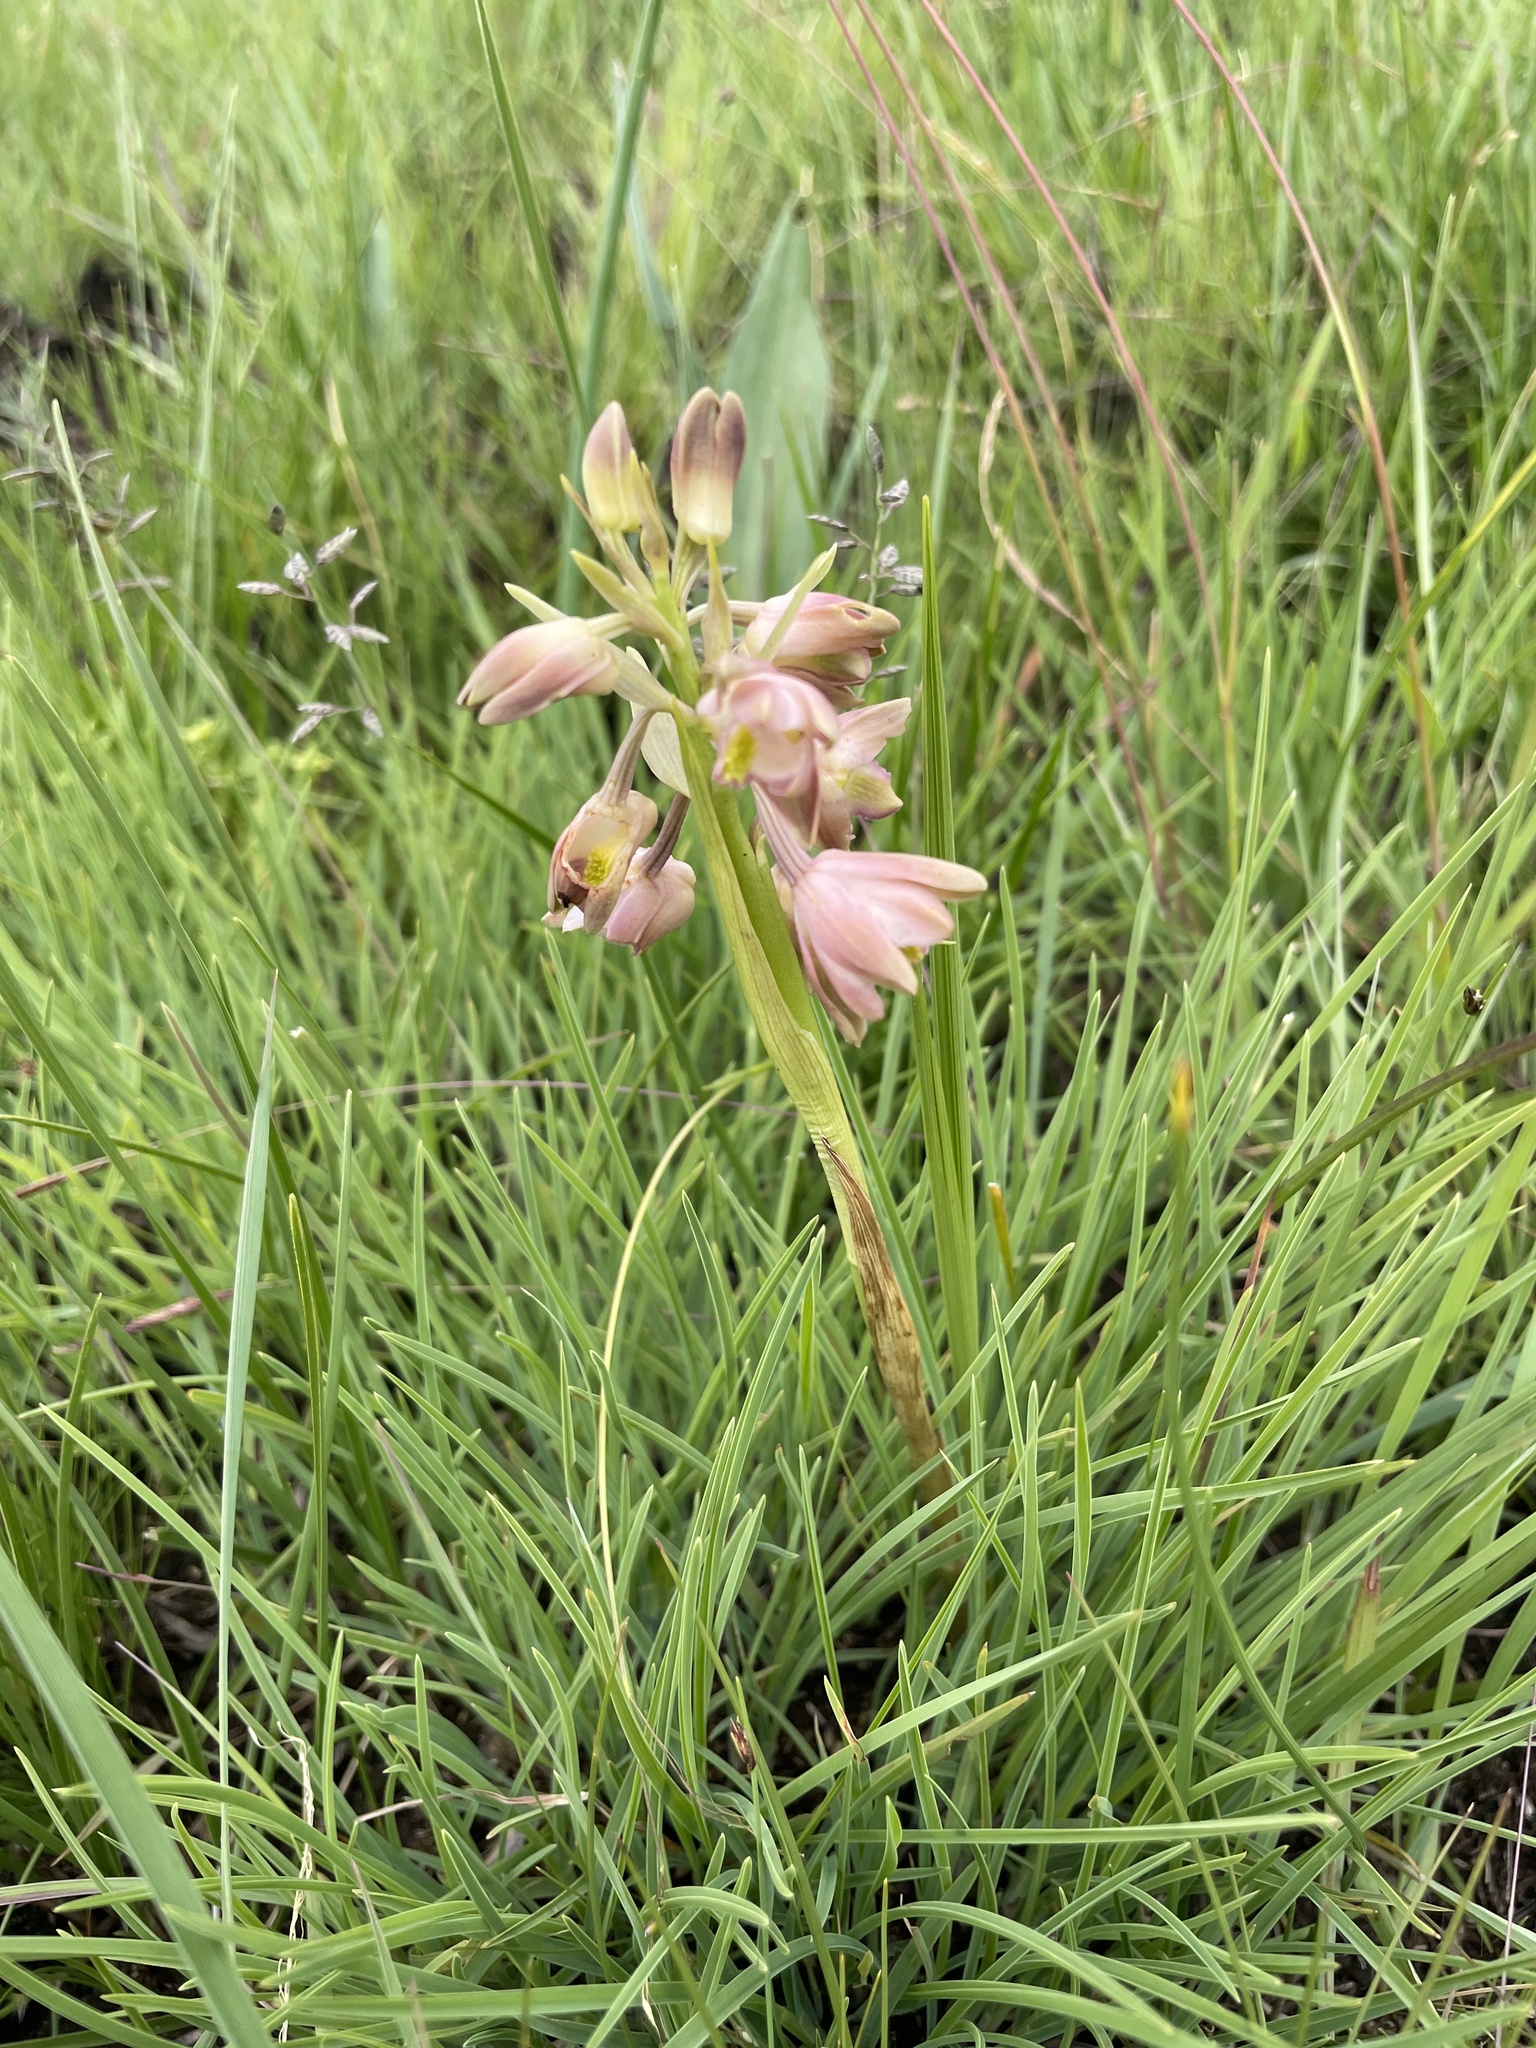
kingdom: Plantae
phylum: Tracheophyta
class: Liliopsida
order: Asparagales
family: Orchidaceae
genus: Eulophia
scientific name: Eulophia huttonii
